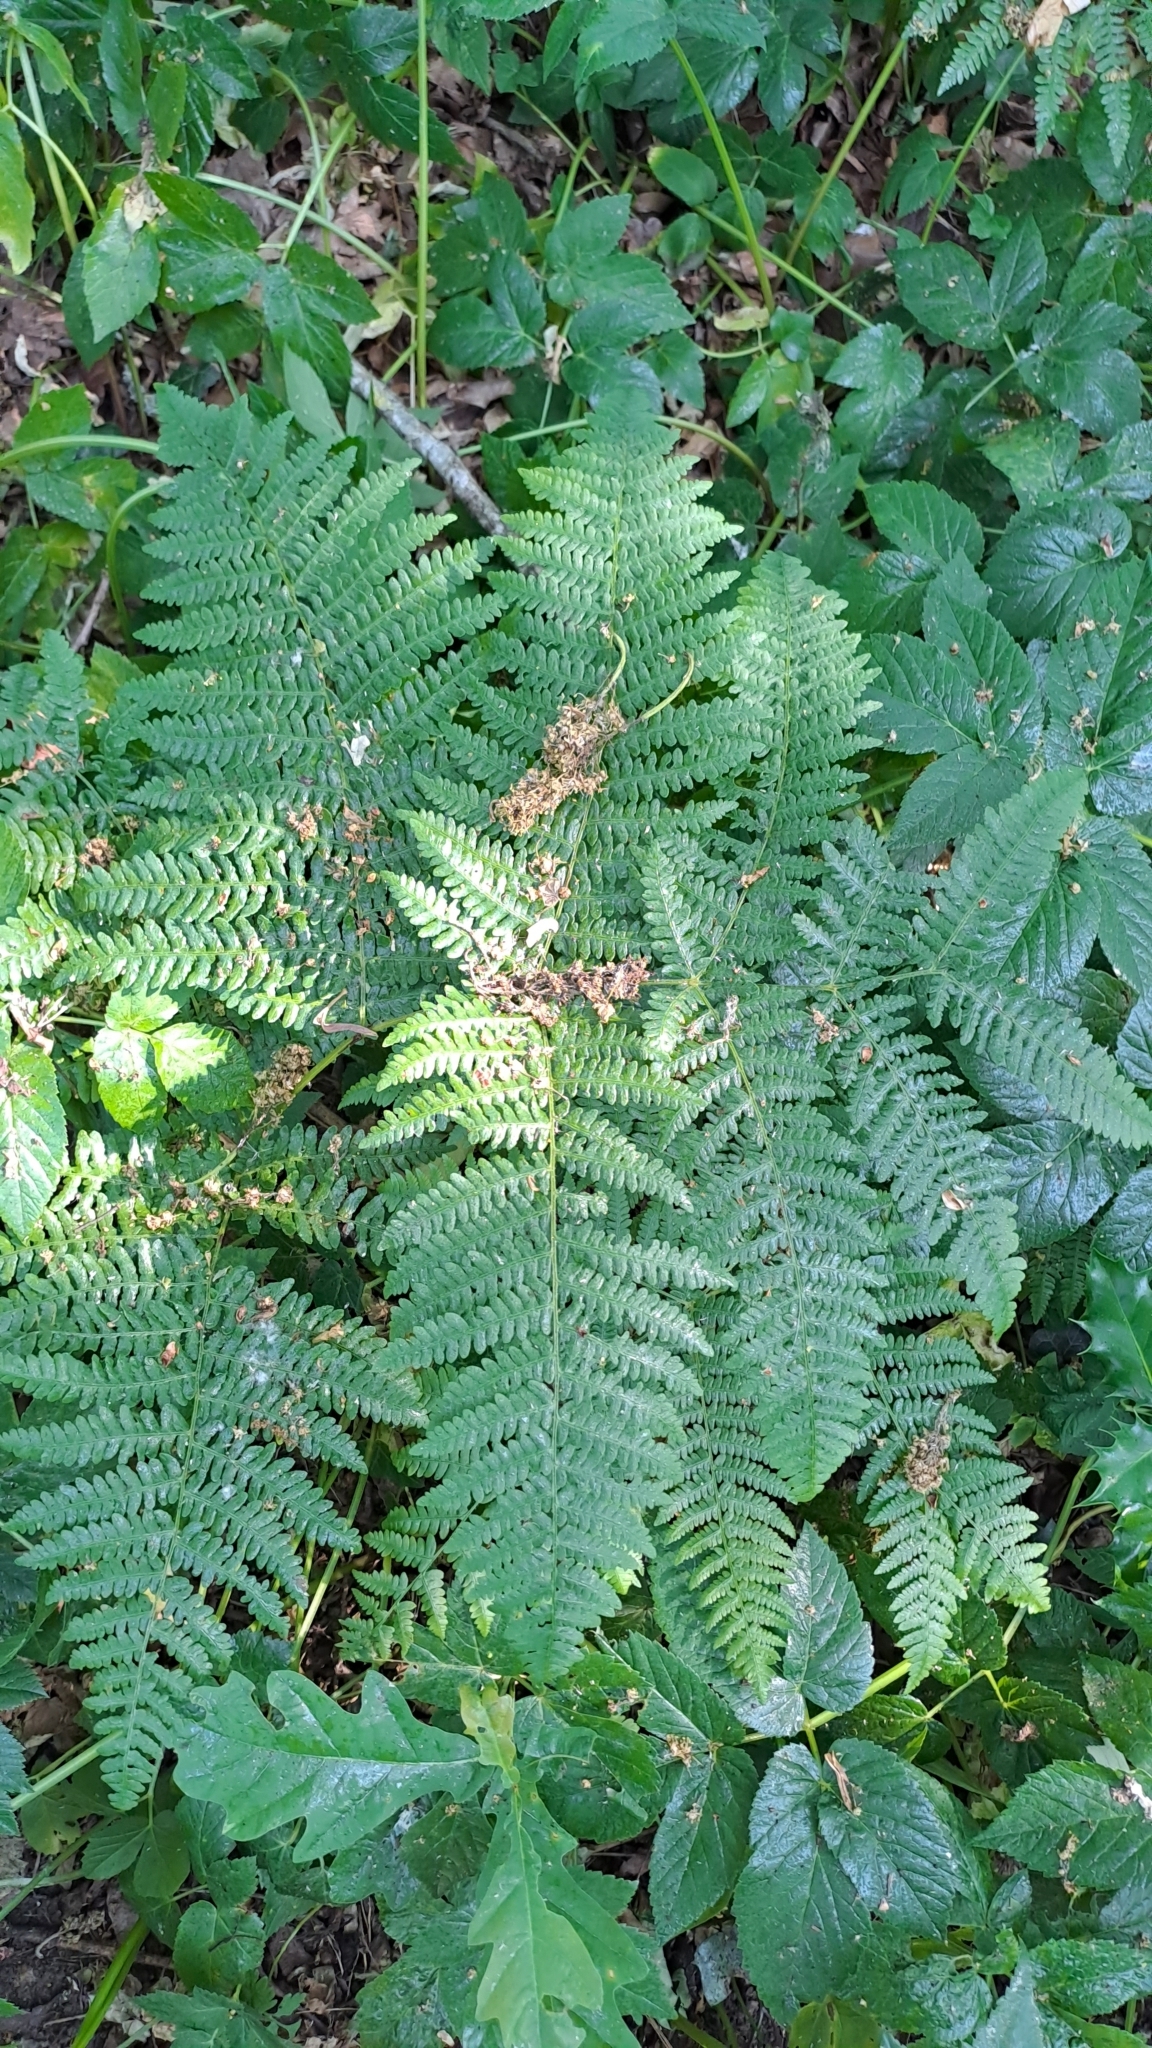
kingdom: Plantae
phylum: Tracheophyta
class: Polypodiopsida
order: Polypodiales
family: Dennstaedtiaceae
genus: Pteridium
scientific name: Pteridium aquilinum
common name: Bracken
